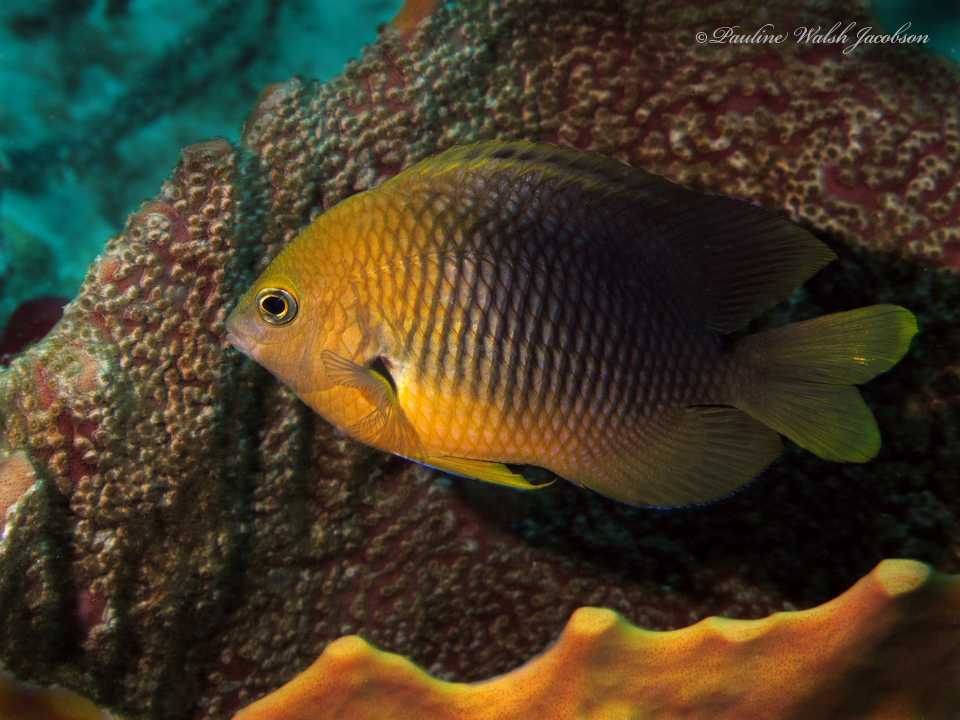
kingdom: Animalia
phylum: Chordata
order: Perciformes
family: Pomacentridae
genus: Stegastes
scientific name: Stegastes planifrons
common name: Threespot damselfish
